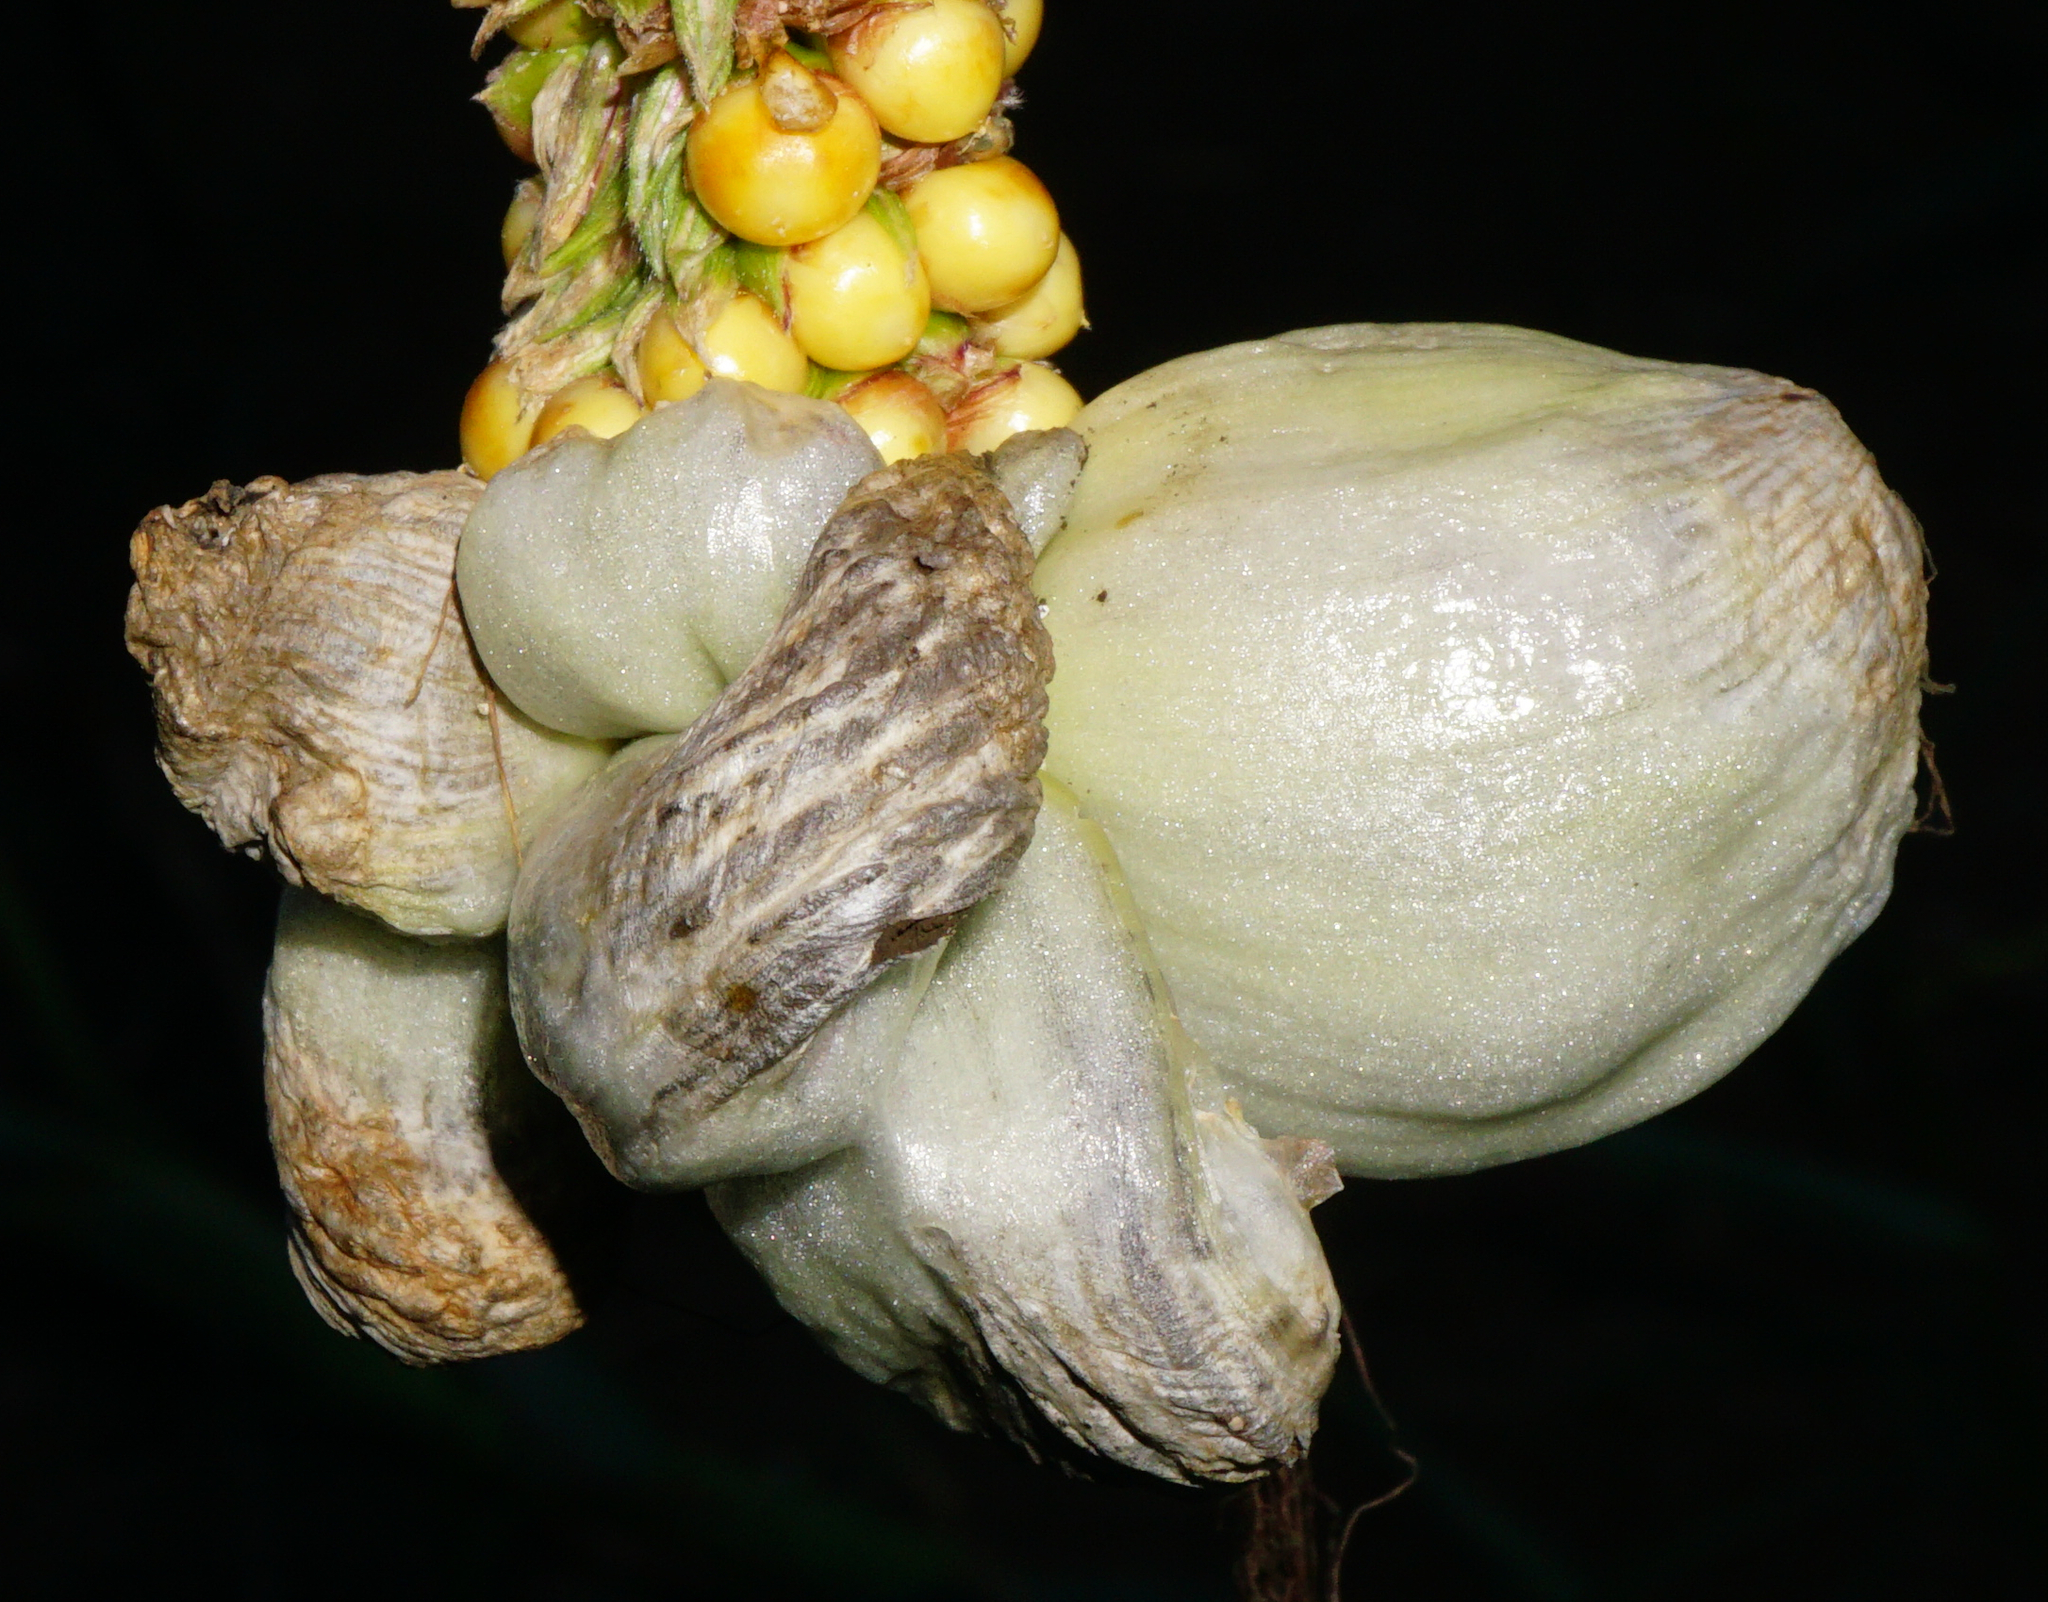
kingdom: Fungi
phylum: Basidiomycota
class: Ustilaginomycetes
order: Ustilaginales
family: Ustilaginaceae
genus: Mycosarcoma
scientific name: Mycosarcoma maydis
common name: Corn smut
